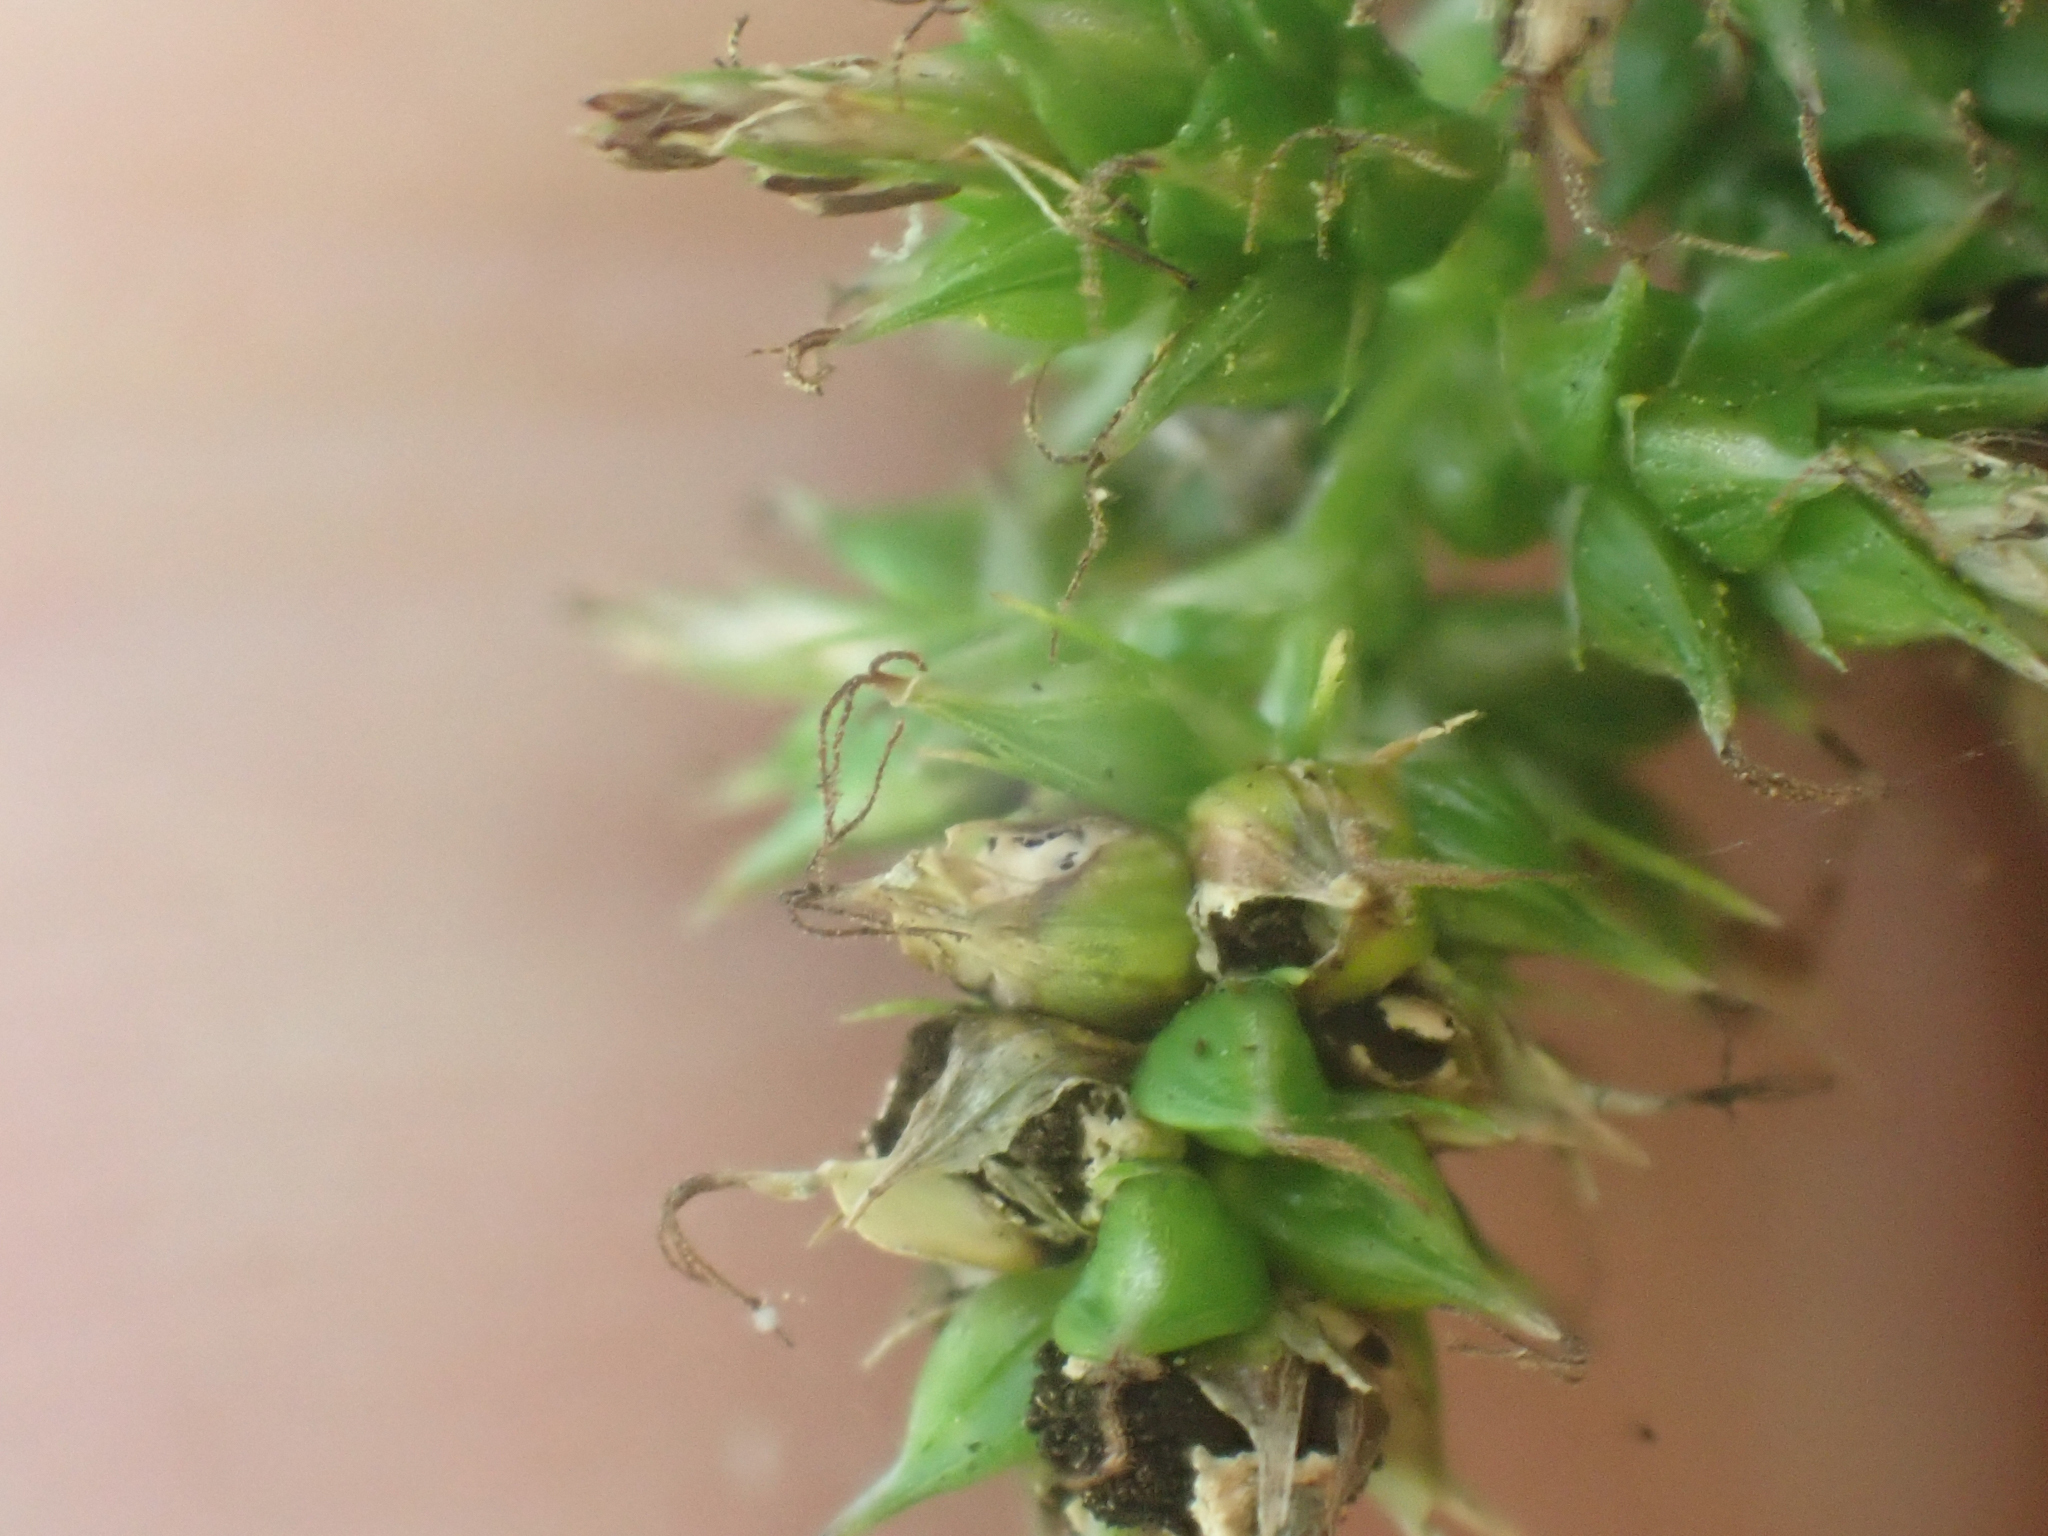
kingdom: Plantae
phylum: Tracheophyta
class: Liliopsida
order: Poales
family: Cyperaceae
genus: Carex
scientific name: Carex polystachya
